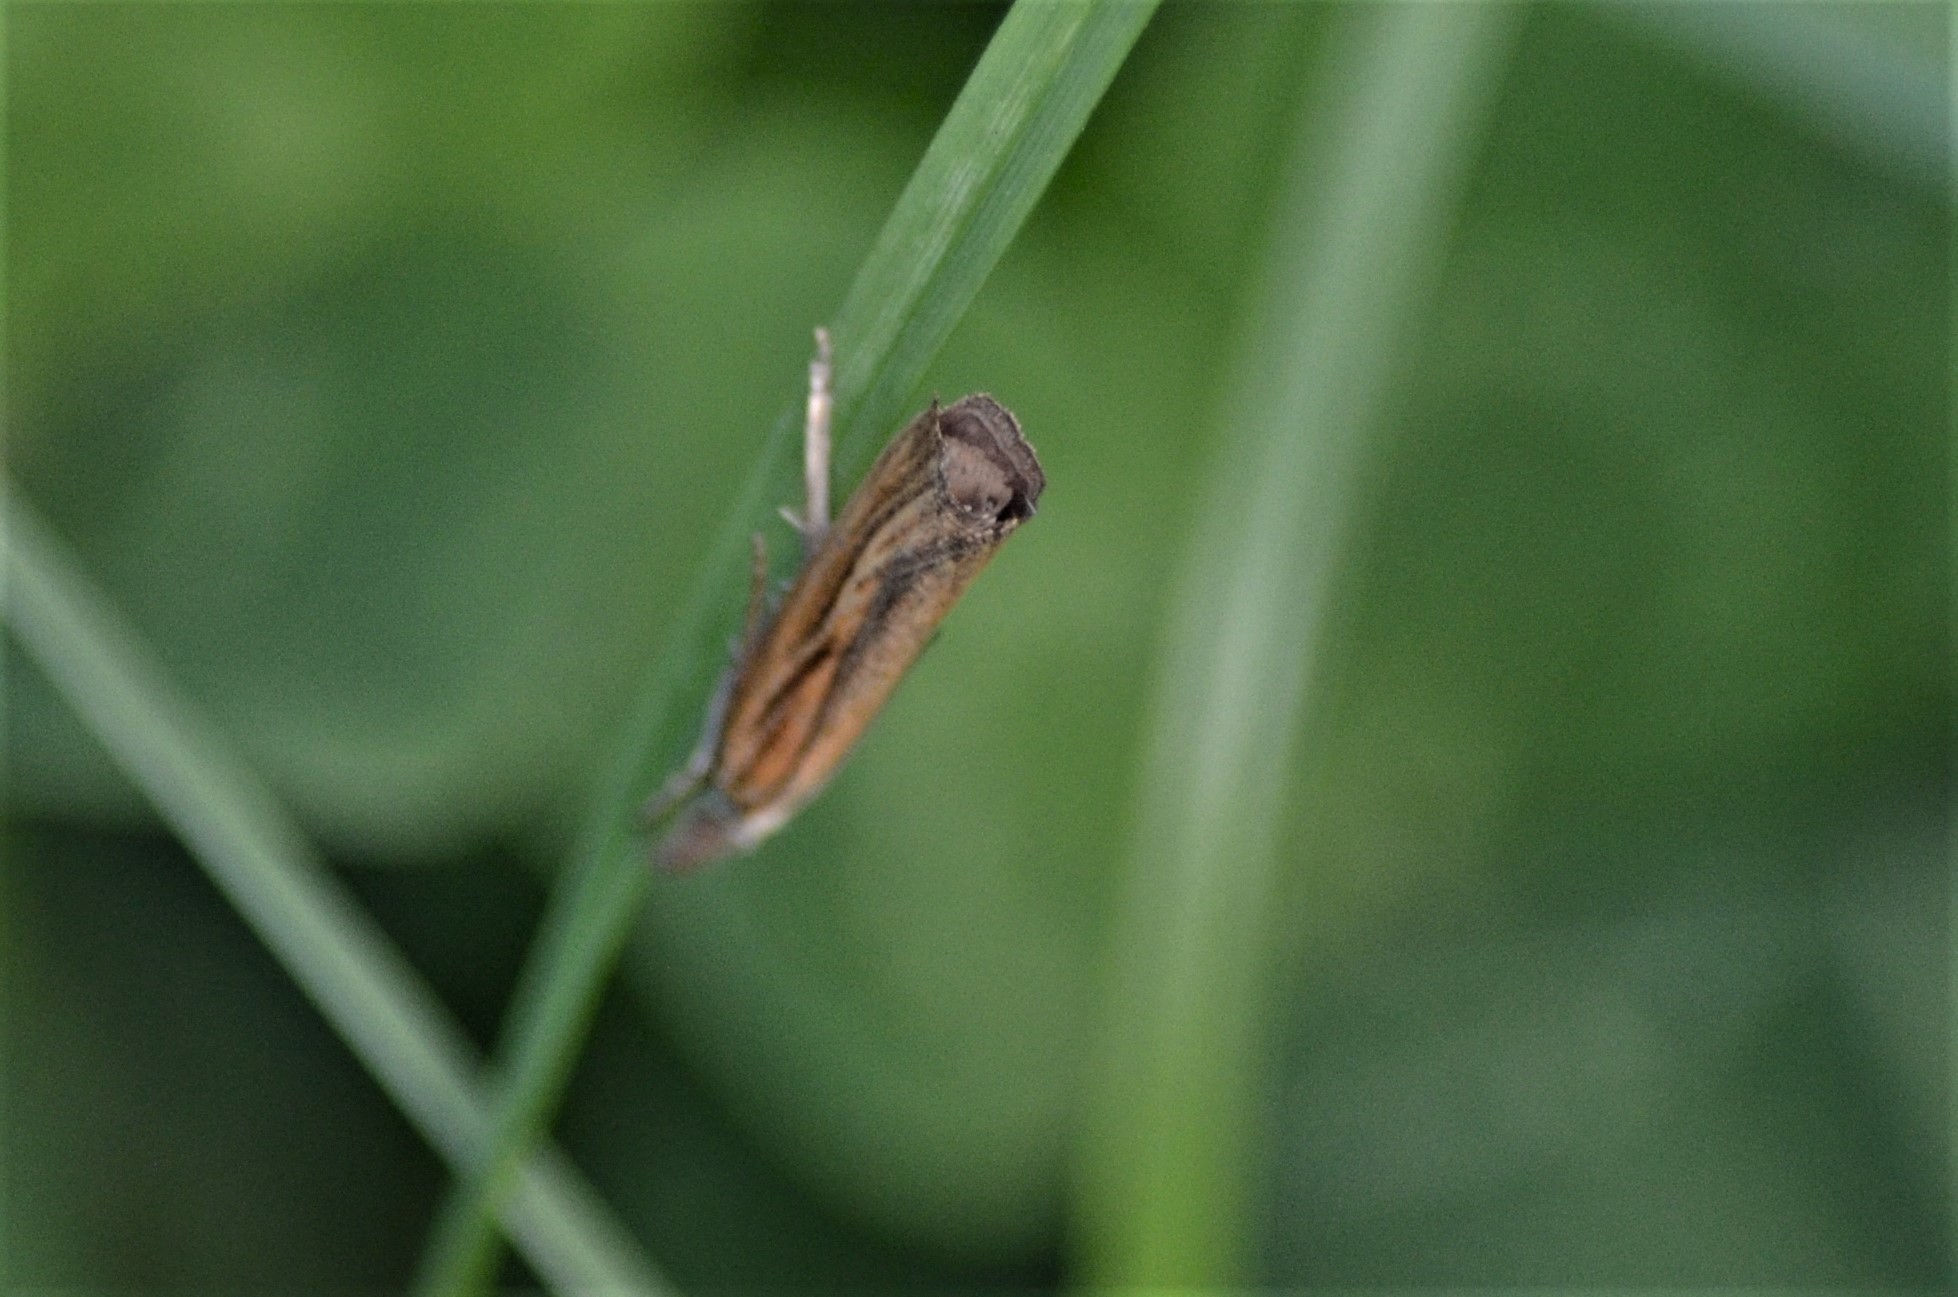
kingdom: Animalia
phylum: Arthropoda
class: Insecta
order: Lepidoptera
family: Crambidae
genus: Agriphila
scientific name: Agriphila tristellus
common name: Common grass-veneer
